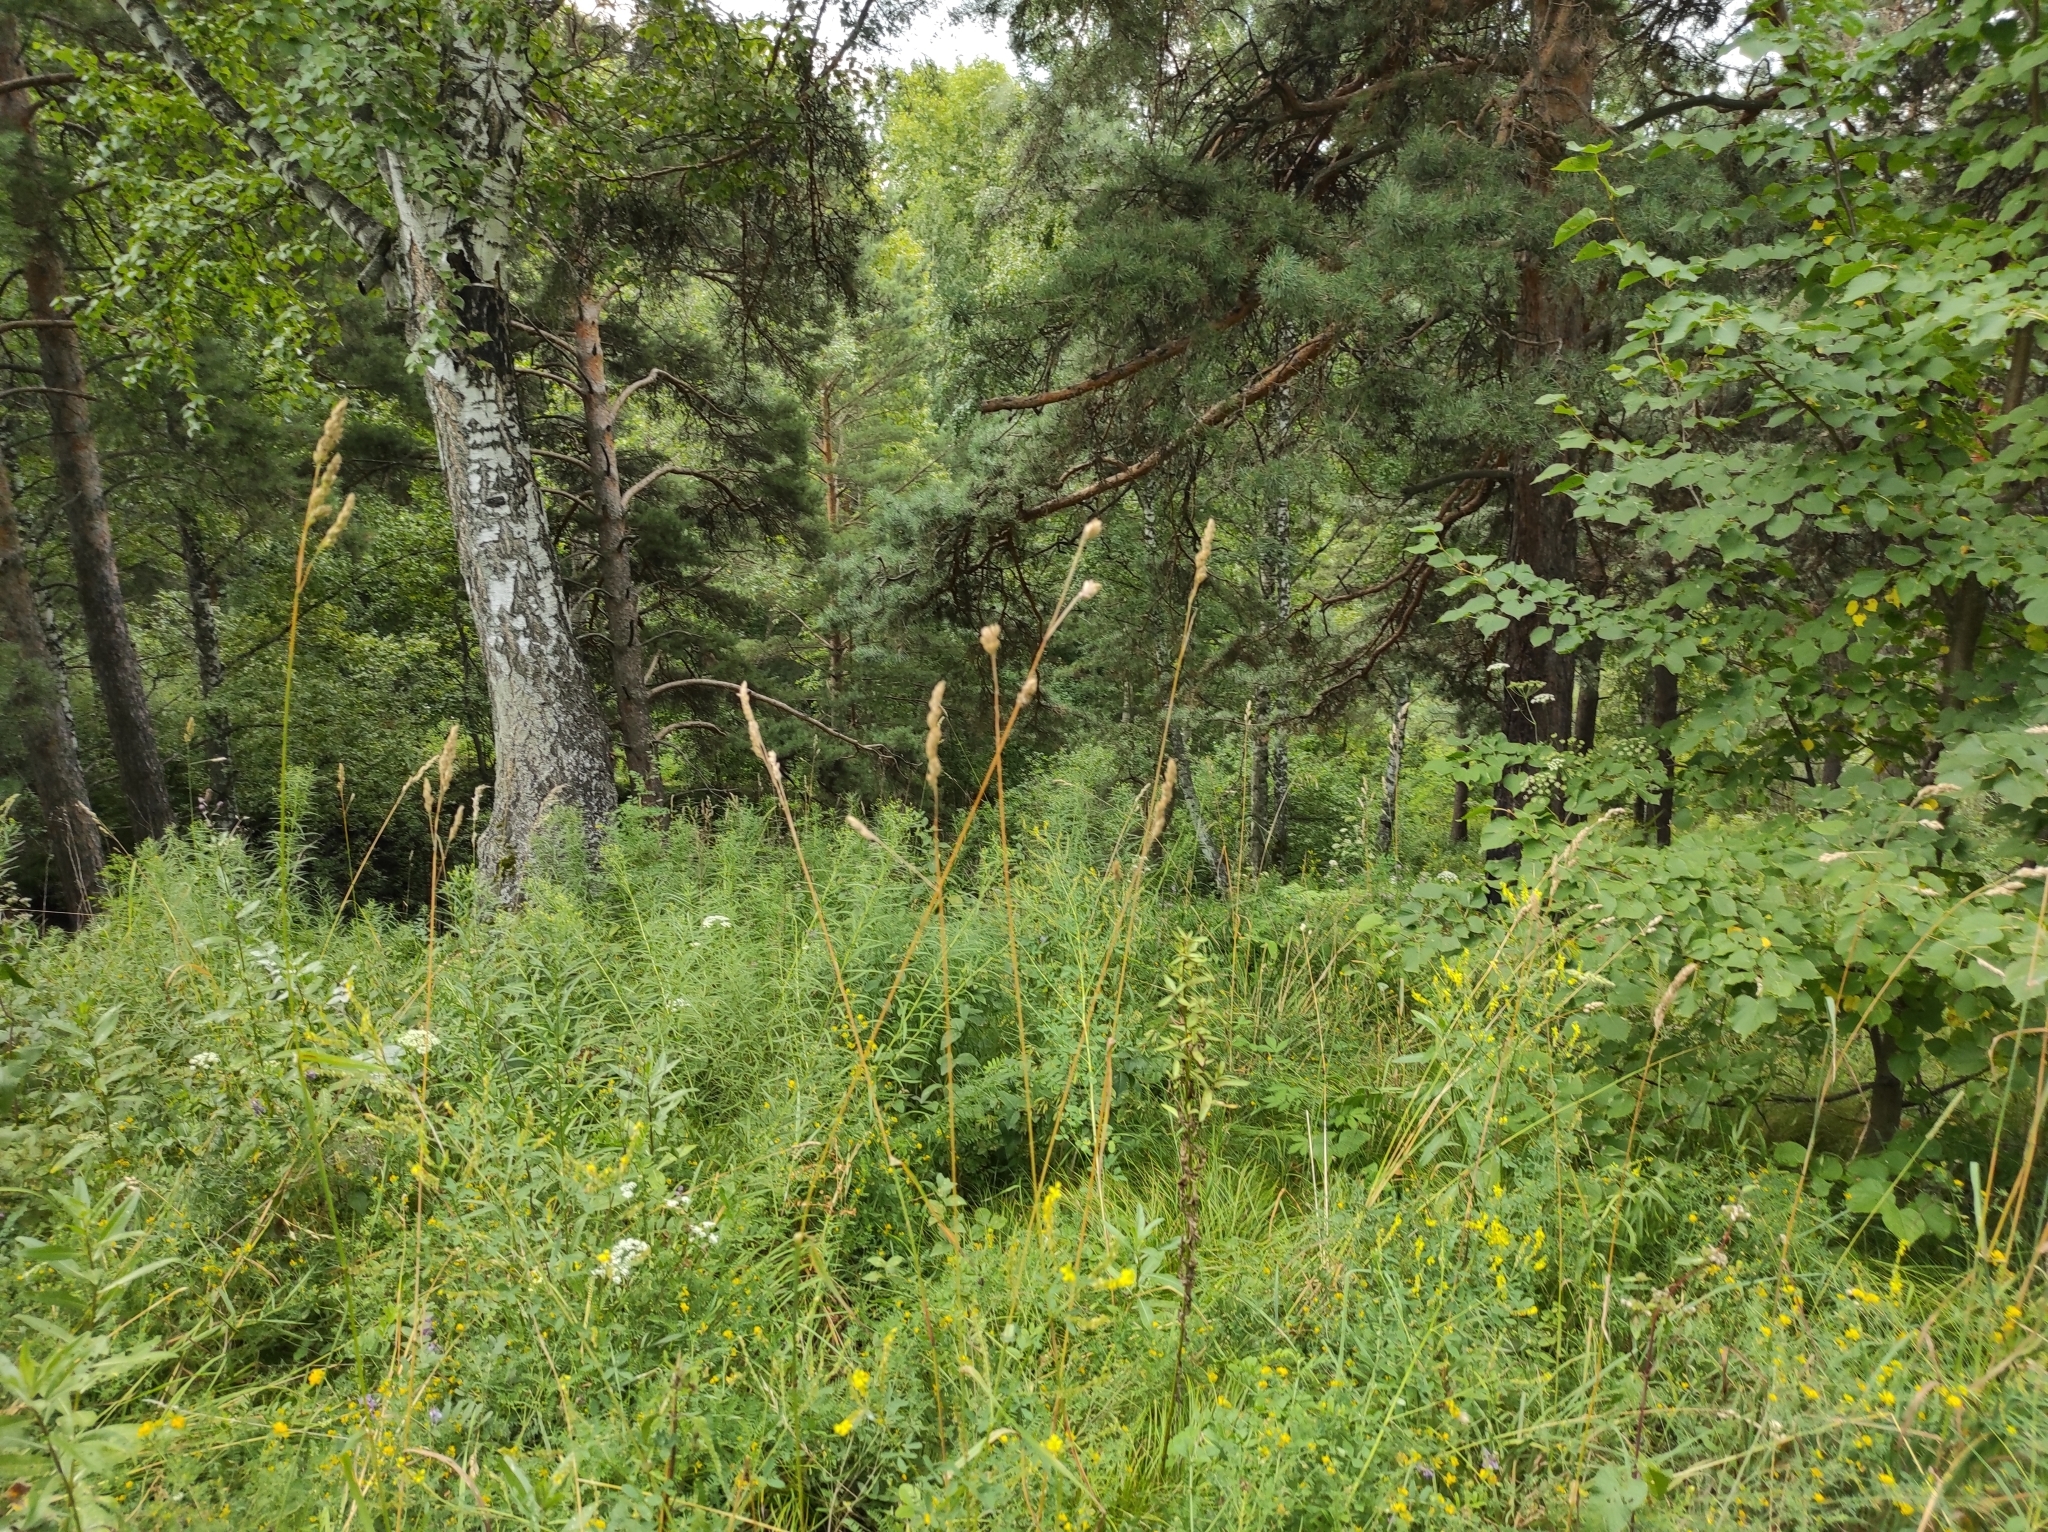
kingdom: Plantae
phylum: Tracheophyta
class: Pinopsida
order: Pinales
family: Pinaceae
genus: Pinus
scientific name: Pinus sylvestris
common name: Scots pine
